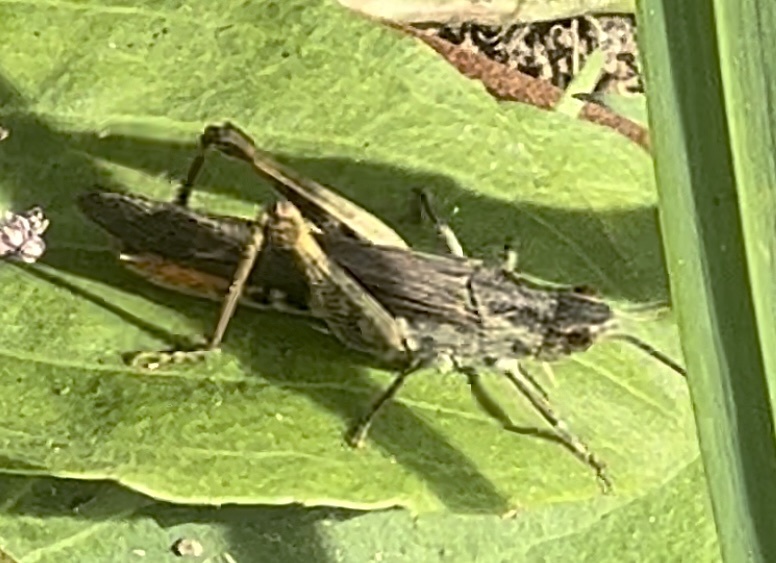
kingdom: Animalia
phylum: Arthropoda
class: Insecta
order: Orthoptera
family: Acrididae
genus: Chorthippus
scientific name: Chorthippus brunneus
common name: Field grasshopper
